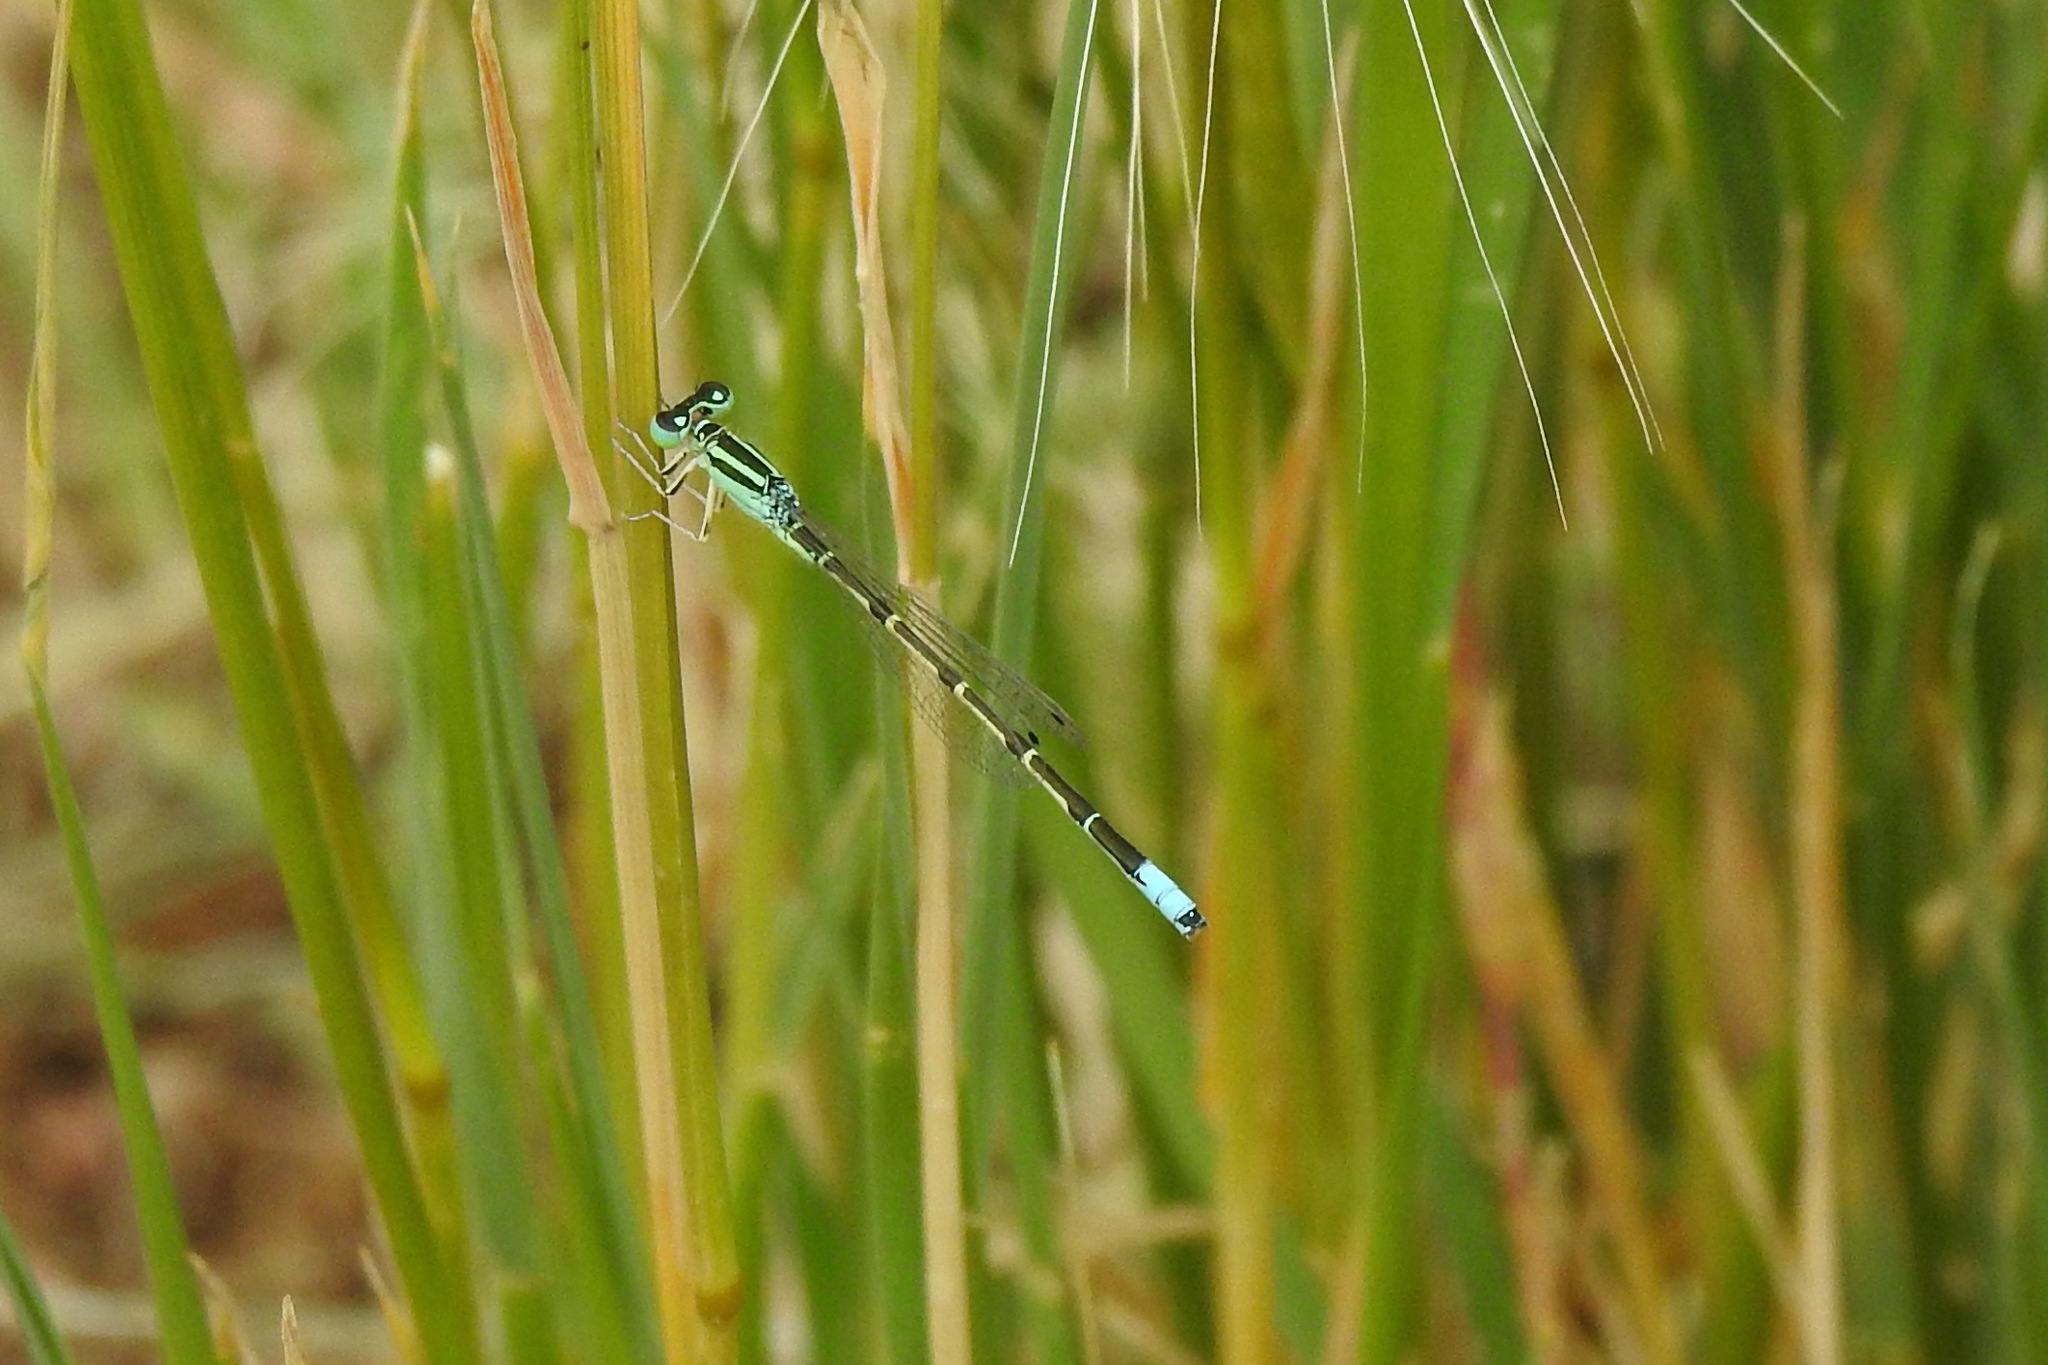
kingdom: Animalia
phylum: Arthropoda
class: Insecta
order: Odonata
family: Coenagrionidae
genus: Ischnura
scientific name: Ischnura demorsa
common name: Mexican forktail
